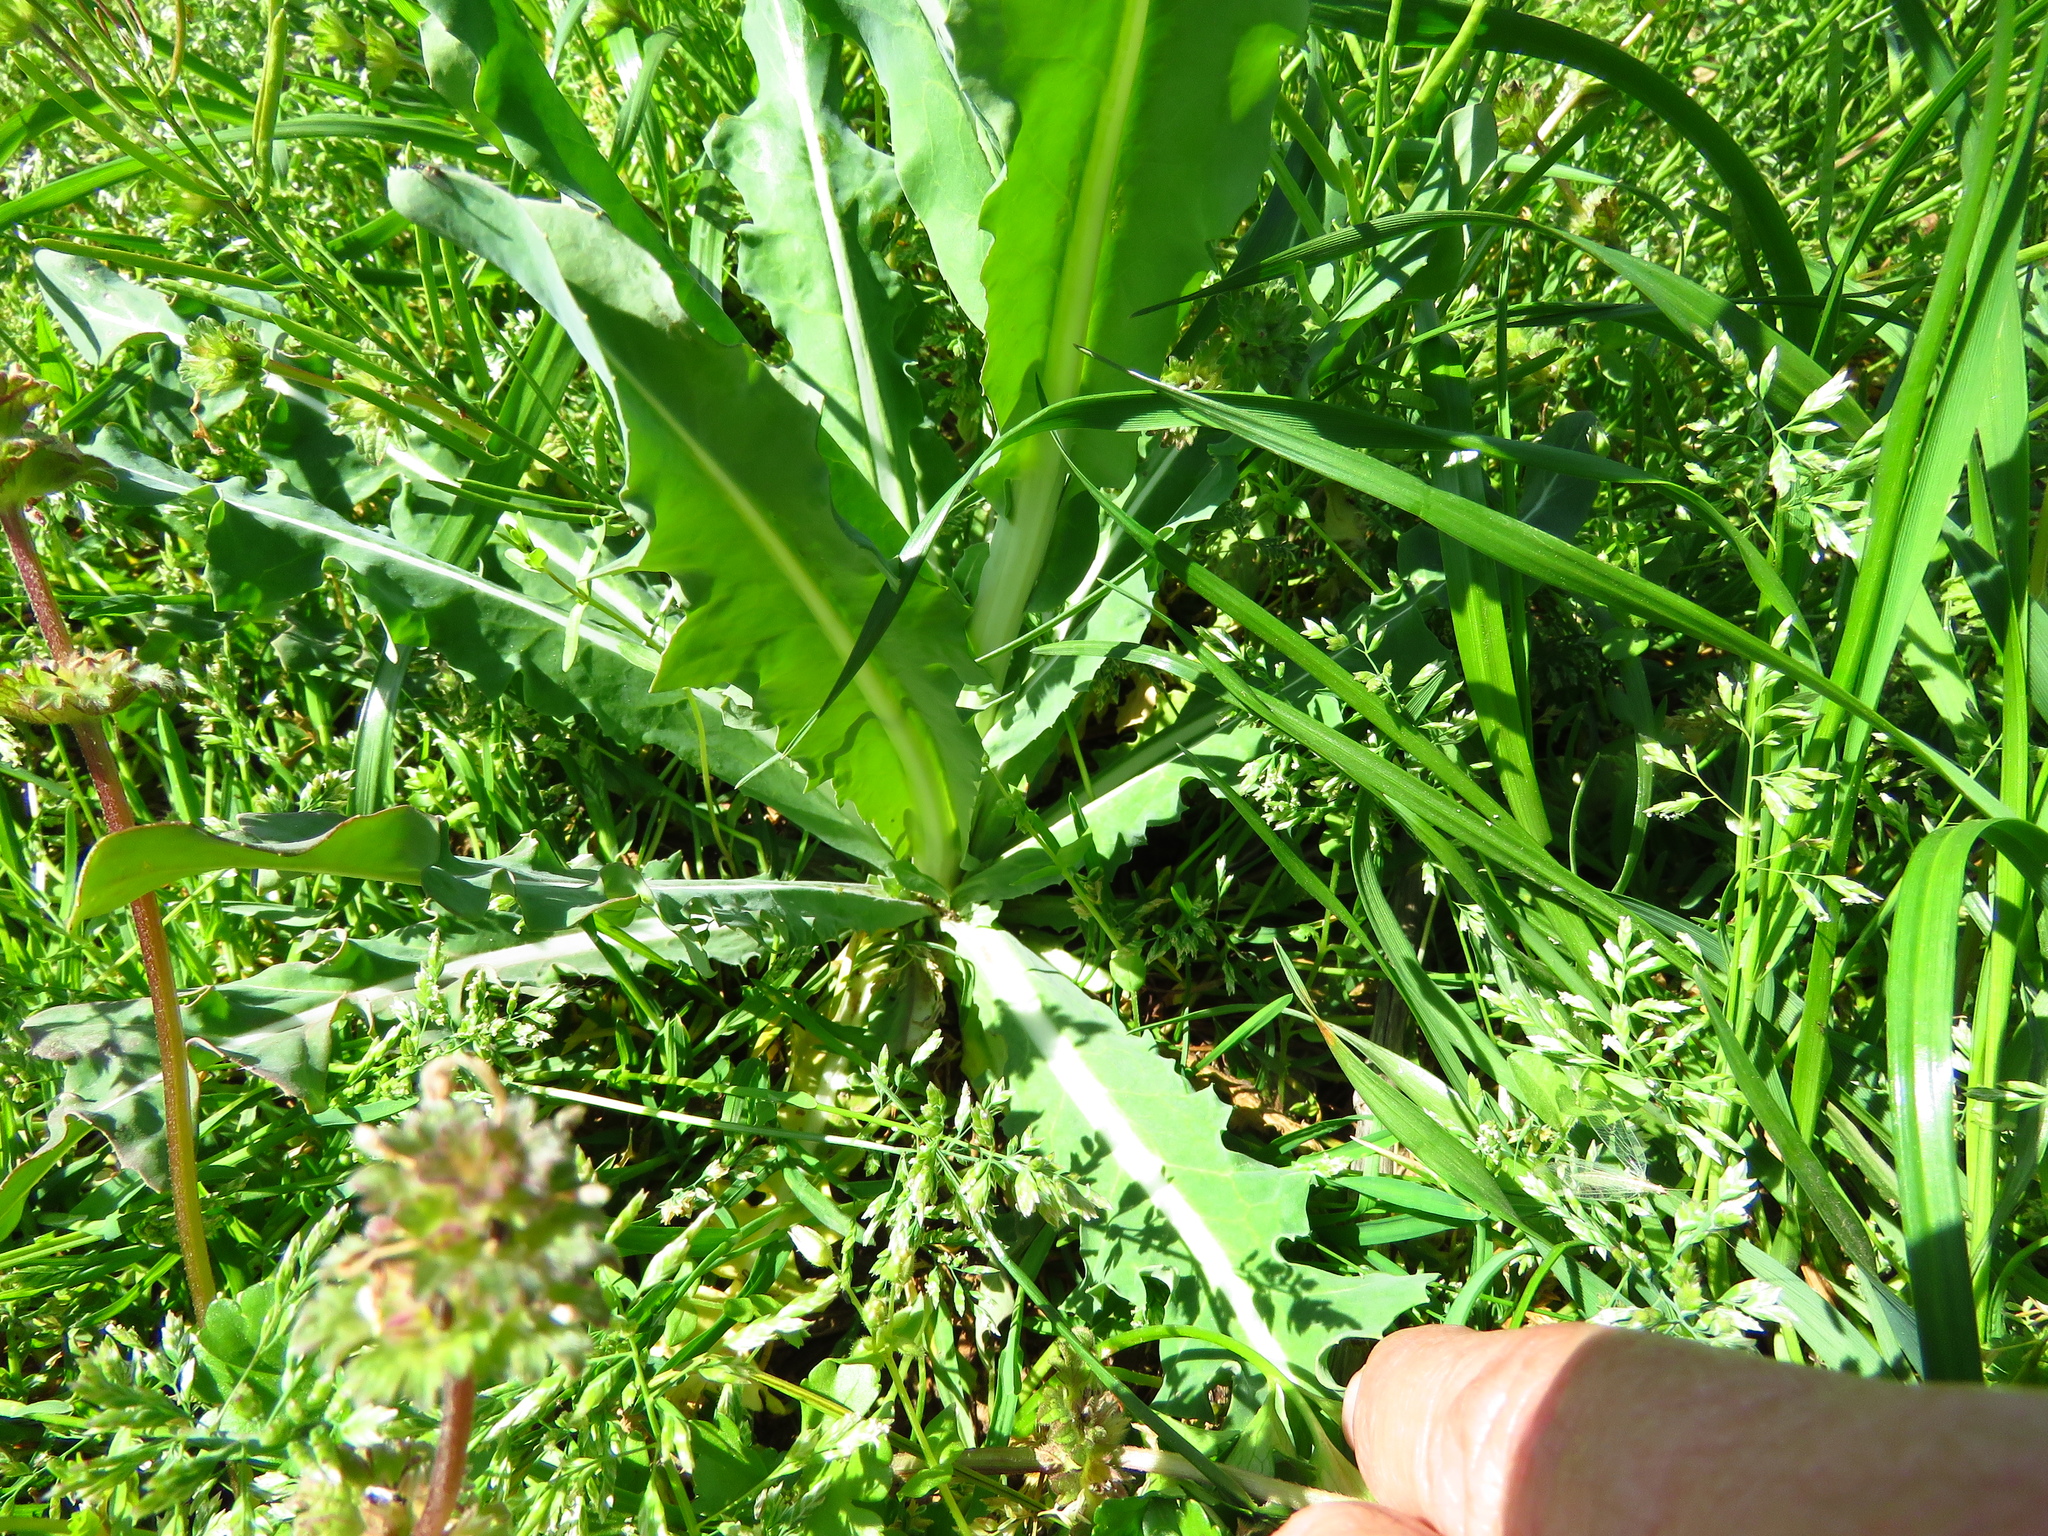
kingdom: Plantae
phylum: Tracheophyta
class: Magnoliopsida
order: Brassicales
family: Brassicaceae
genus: Myagrum
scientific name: Myagrum perfoliatum
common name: Mitre cress
